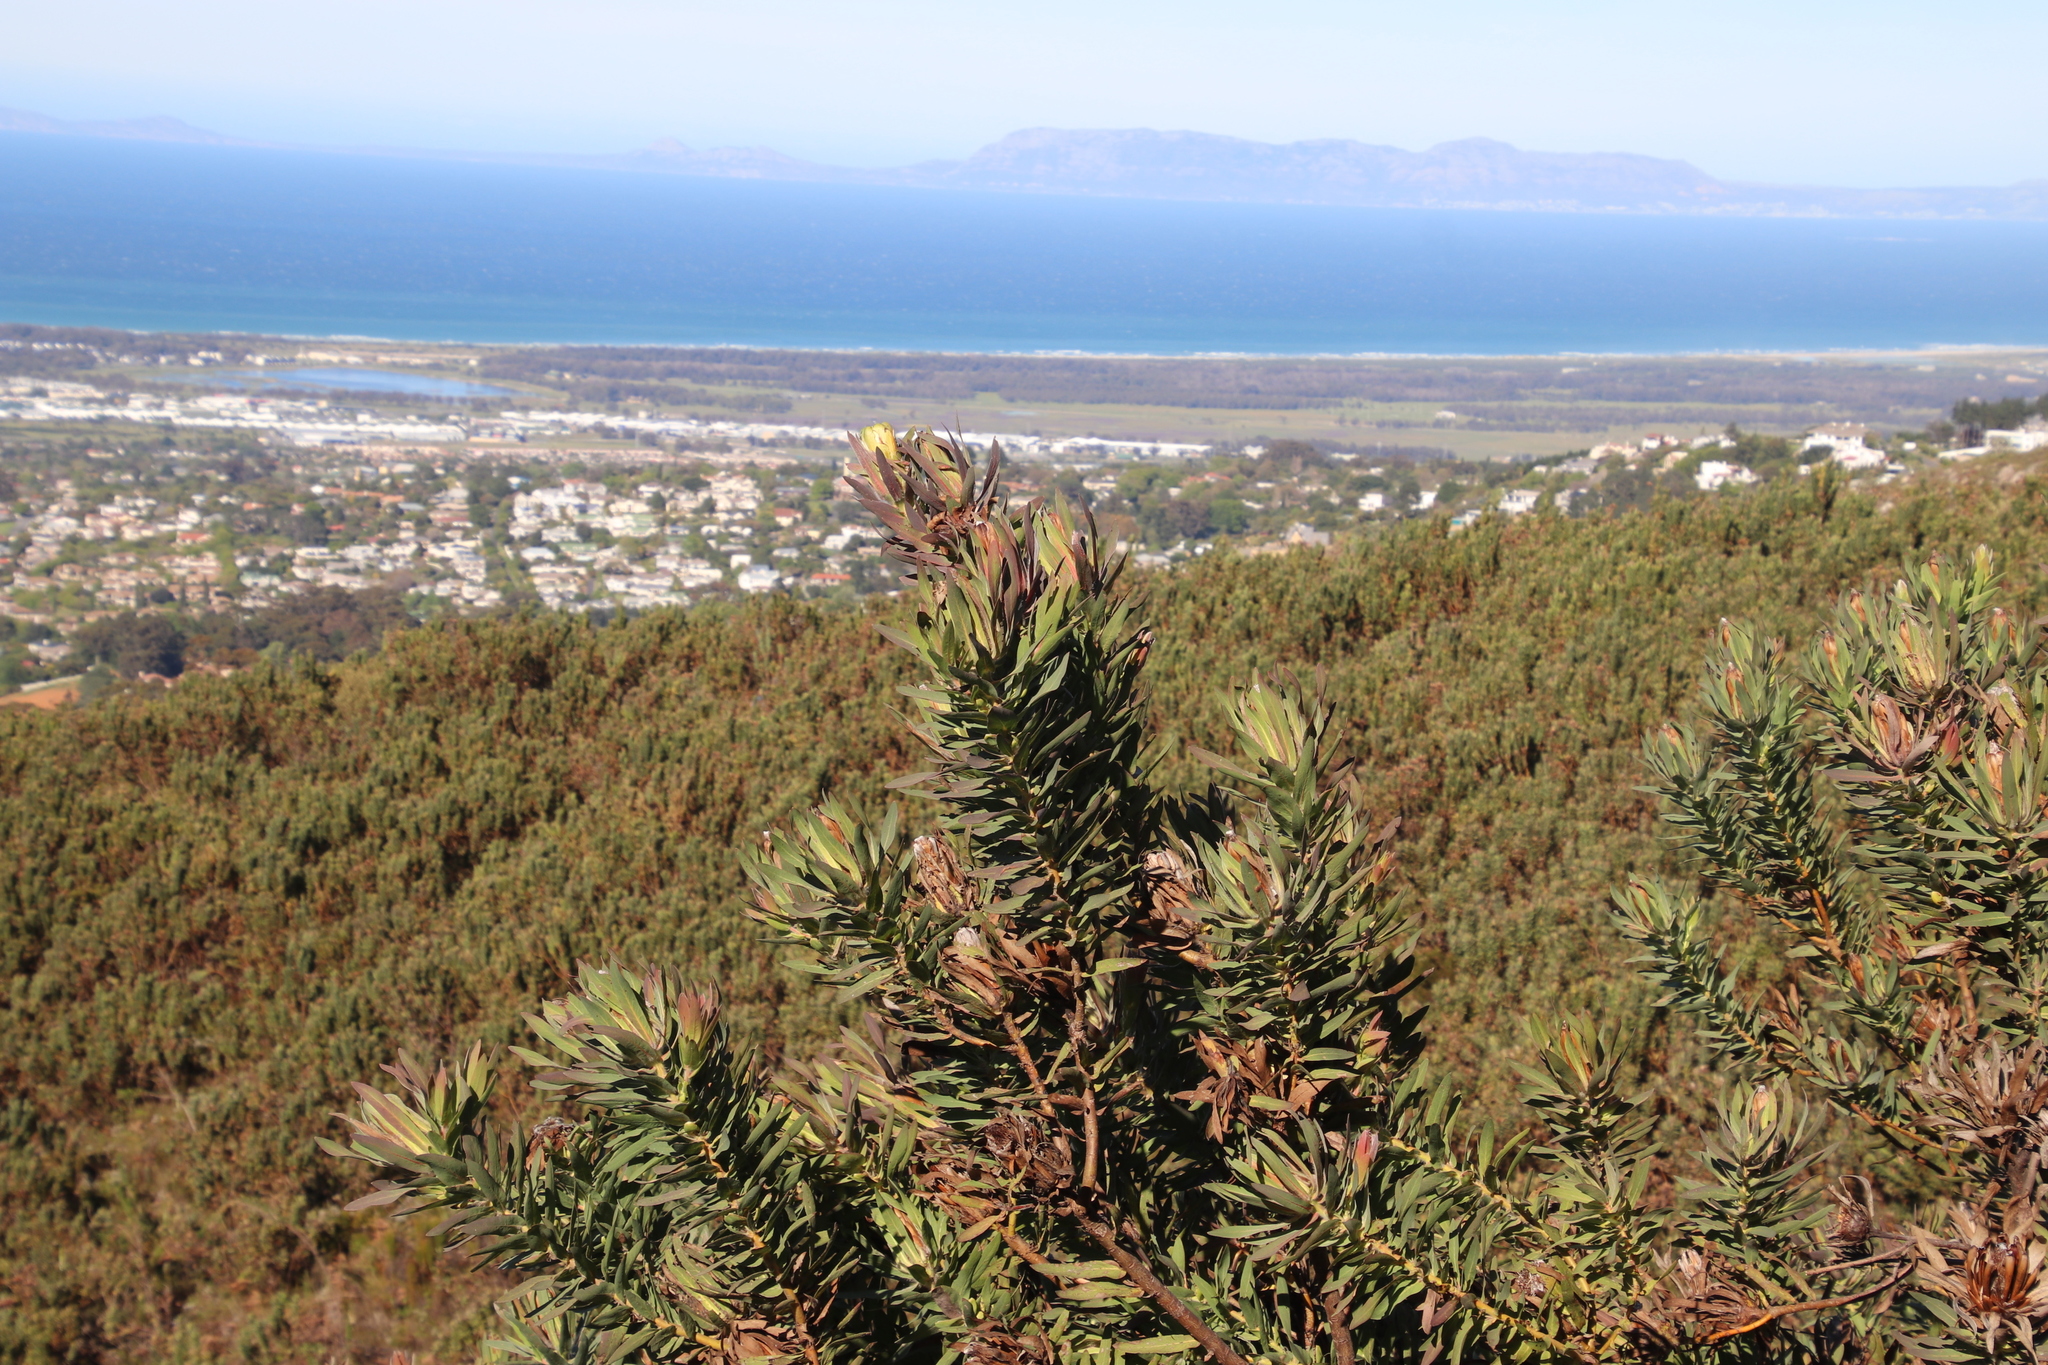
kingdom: Plantae
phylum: Tracheophyta
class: Magnoliopsida
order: Proteales
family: Proteaceae
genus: Protea
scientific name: Protea coronata
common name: Green sugarbush
